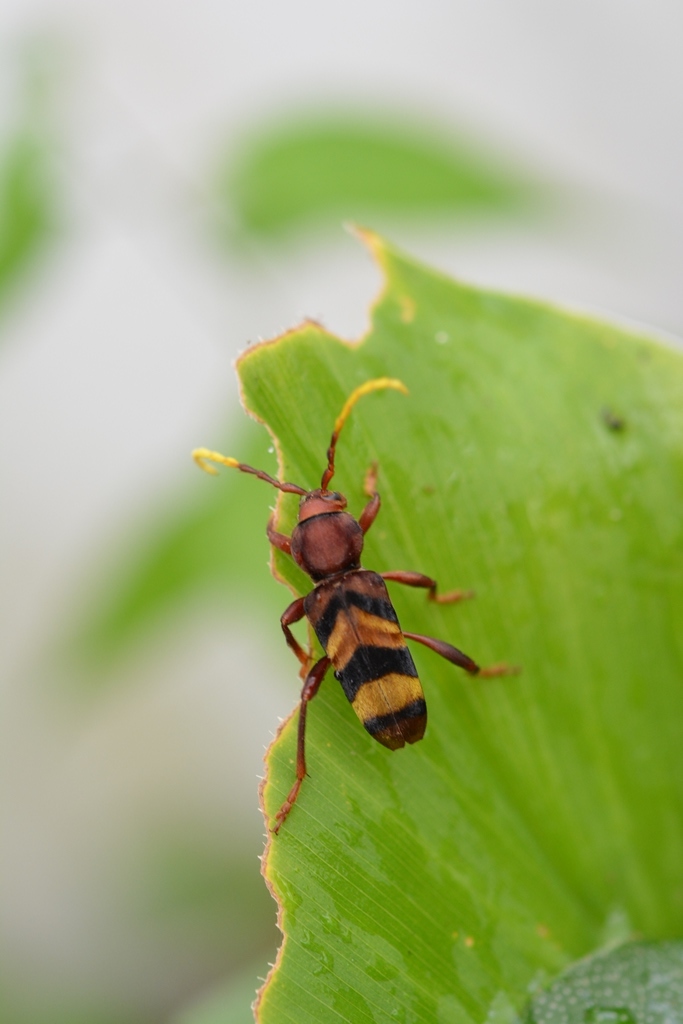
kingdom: Animalia
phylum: Arthropoda
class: Insecta
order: Coleoptera
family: Cerambycidae
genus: Dexithea
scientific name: Dexithea klugii
